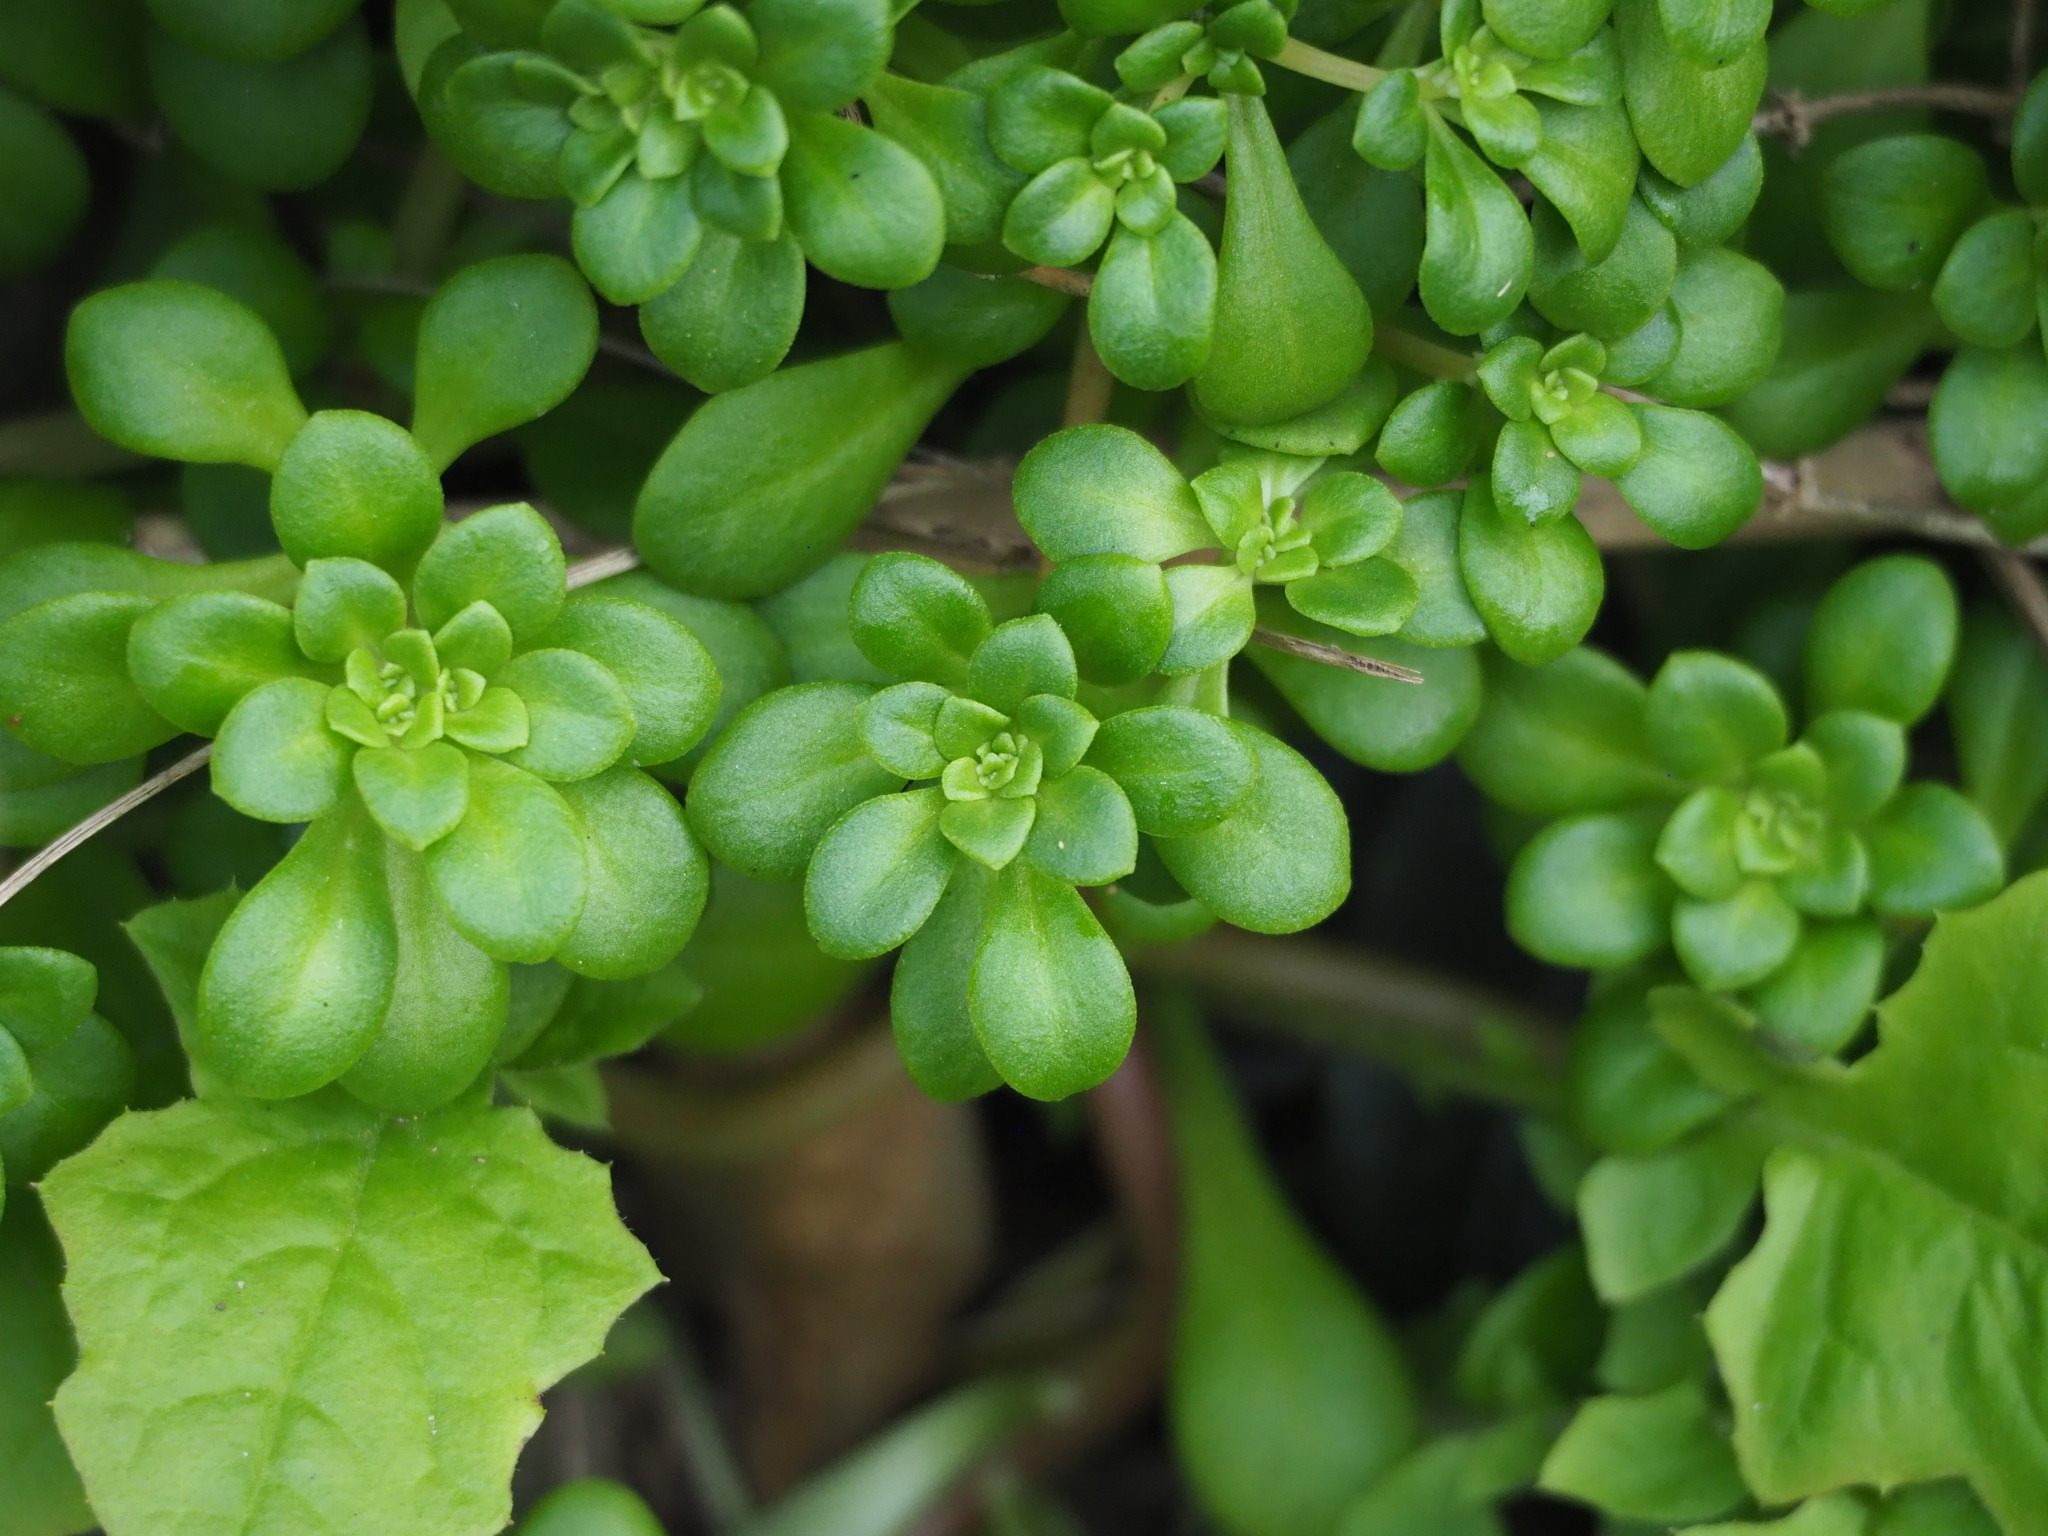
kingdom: Plantae
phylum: Tracheophyta
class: Magnoliopsida
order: Saxifragales
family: Crassulaceae
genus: Sedum
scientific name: Sedum formosanum
